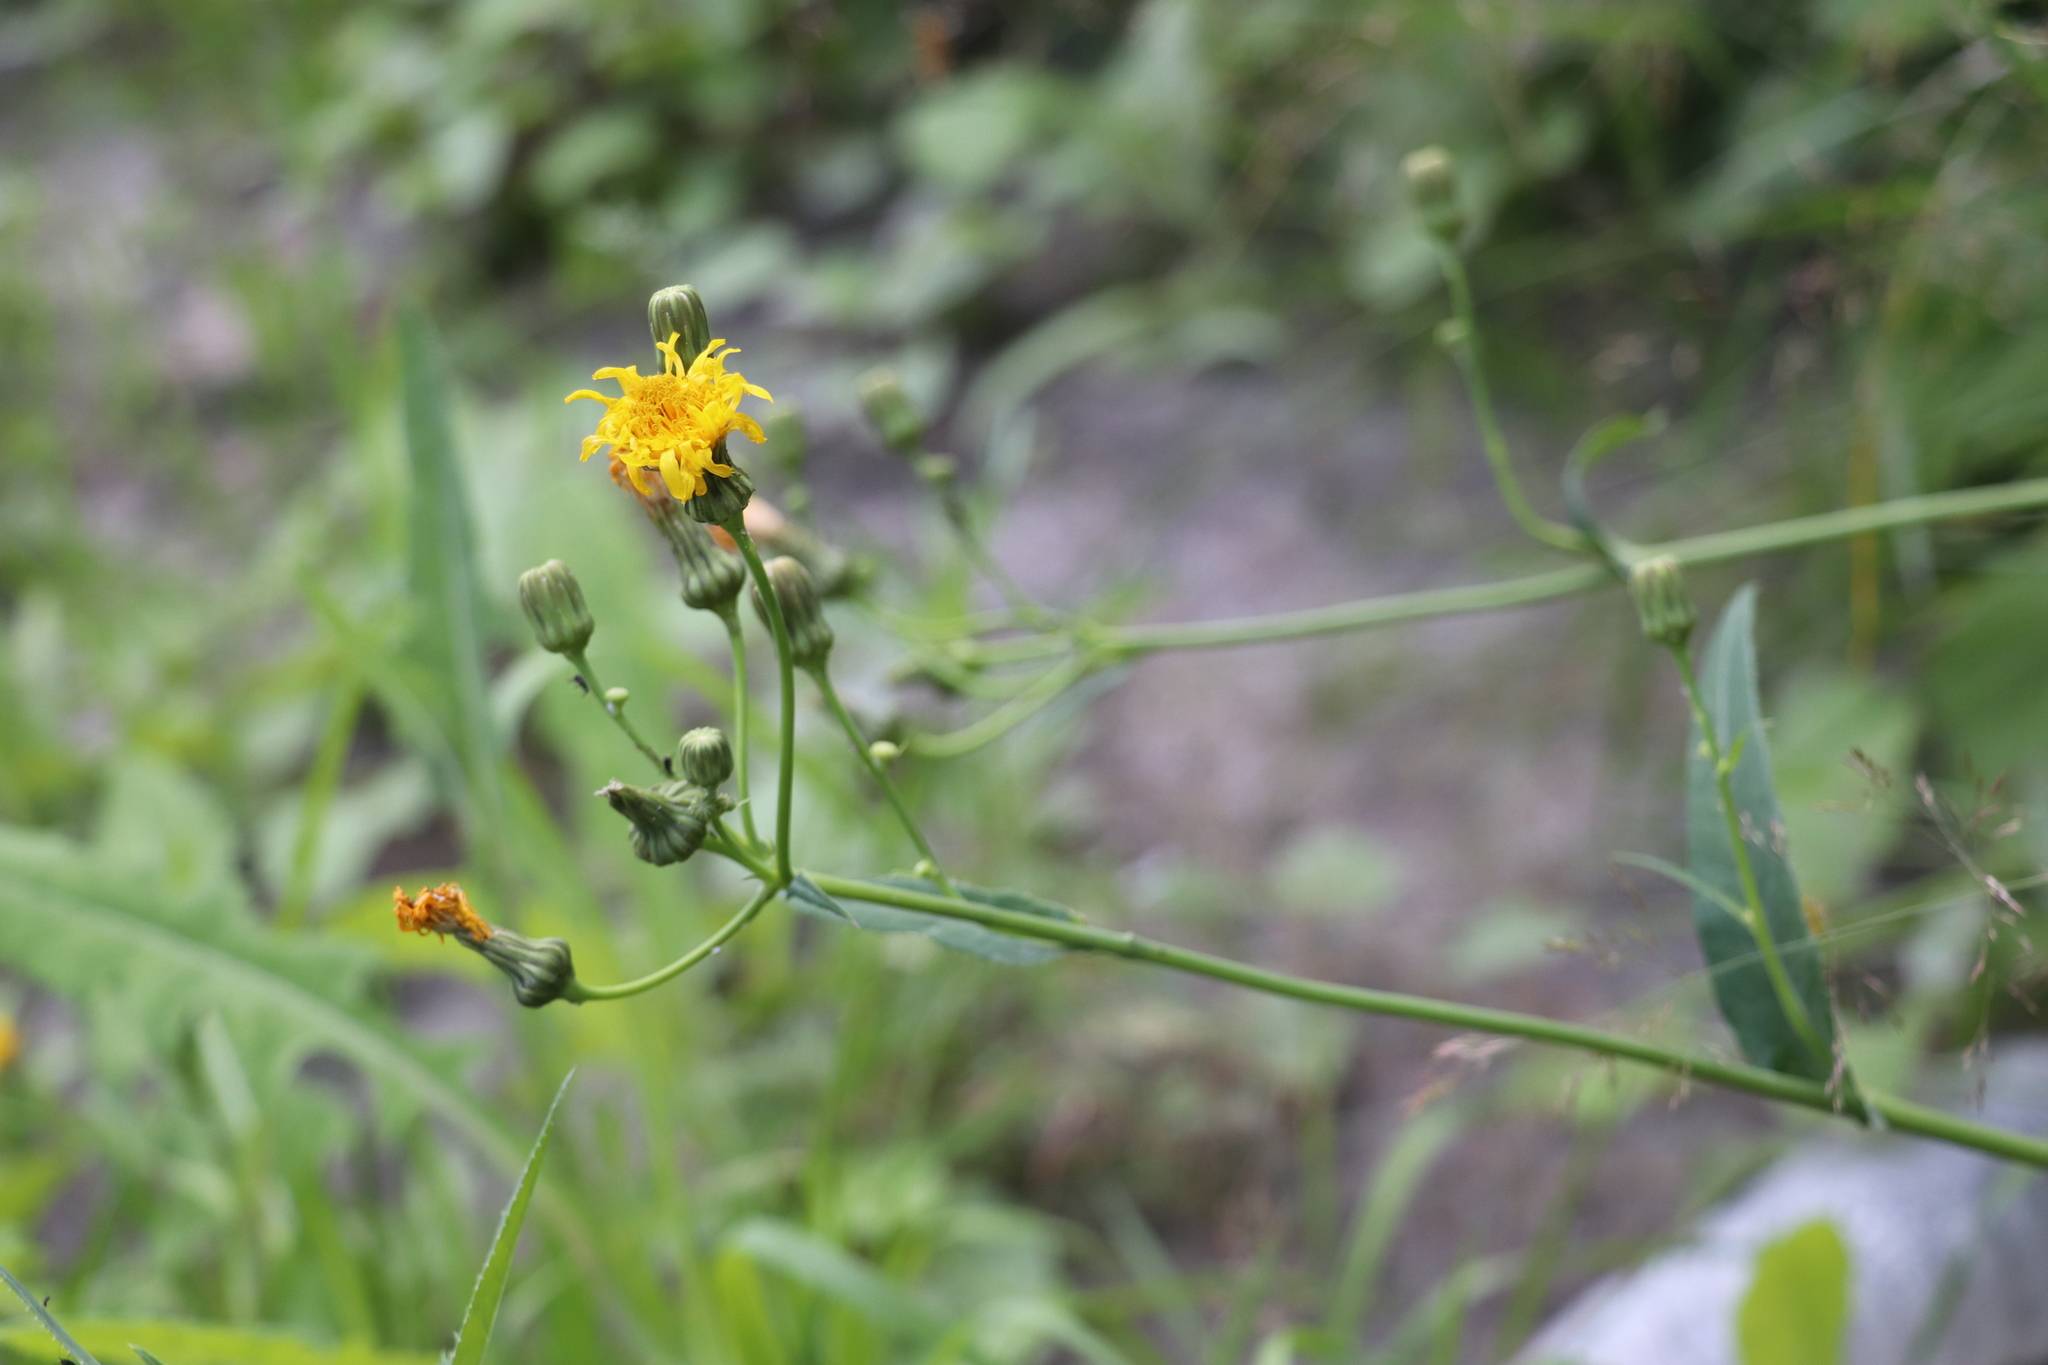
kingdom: Plantae
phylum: Tracheophyta
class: Magnoliopsida
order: Asterales
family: Asteraceae
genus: Sonchus
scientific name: Sonchus arvensis
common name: Perennial sow-thistle
